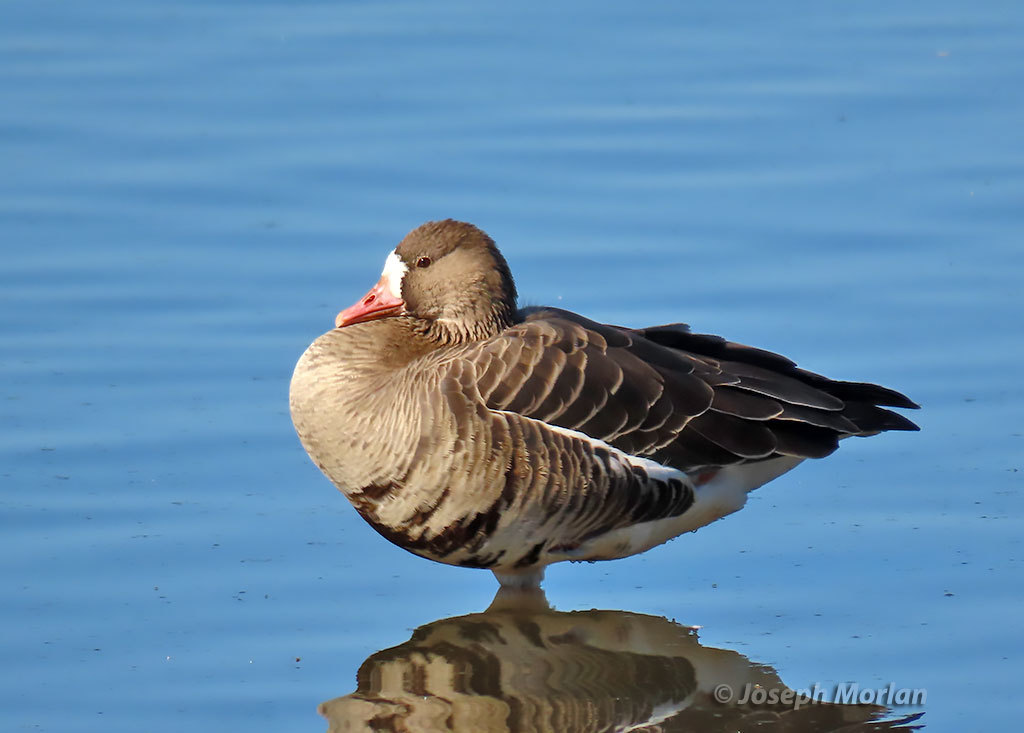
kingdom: Animalia
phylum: Chordata
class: Aves
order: Anseriformes
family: Anatidae
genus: Anser
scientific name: Anser albifrons
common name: Greater white-fronted goose
